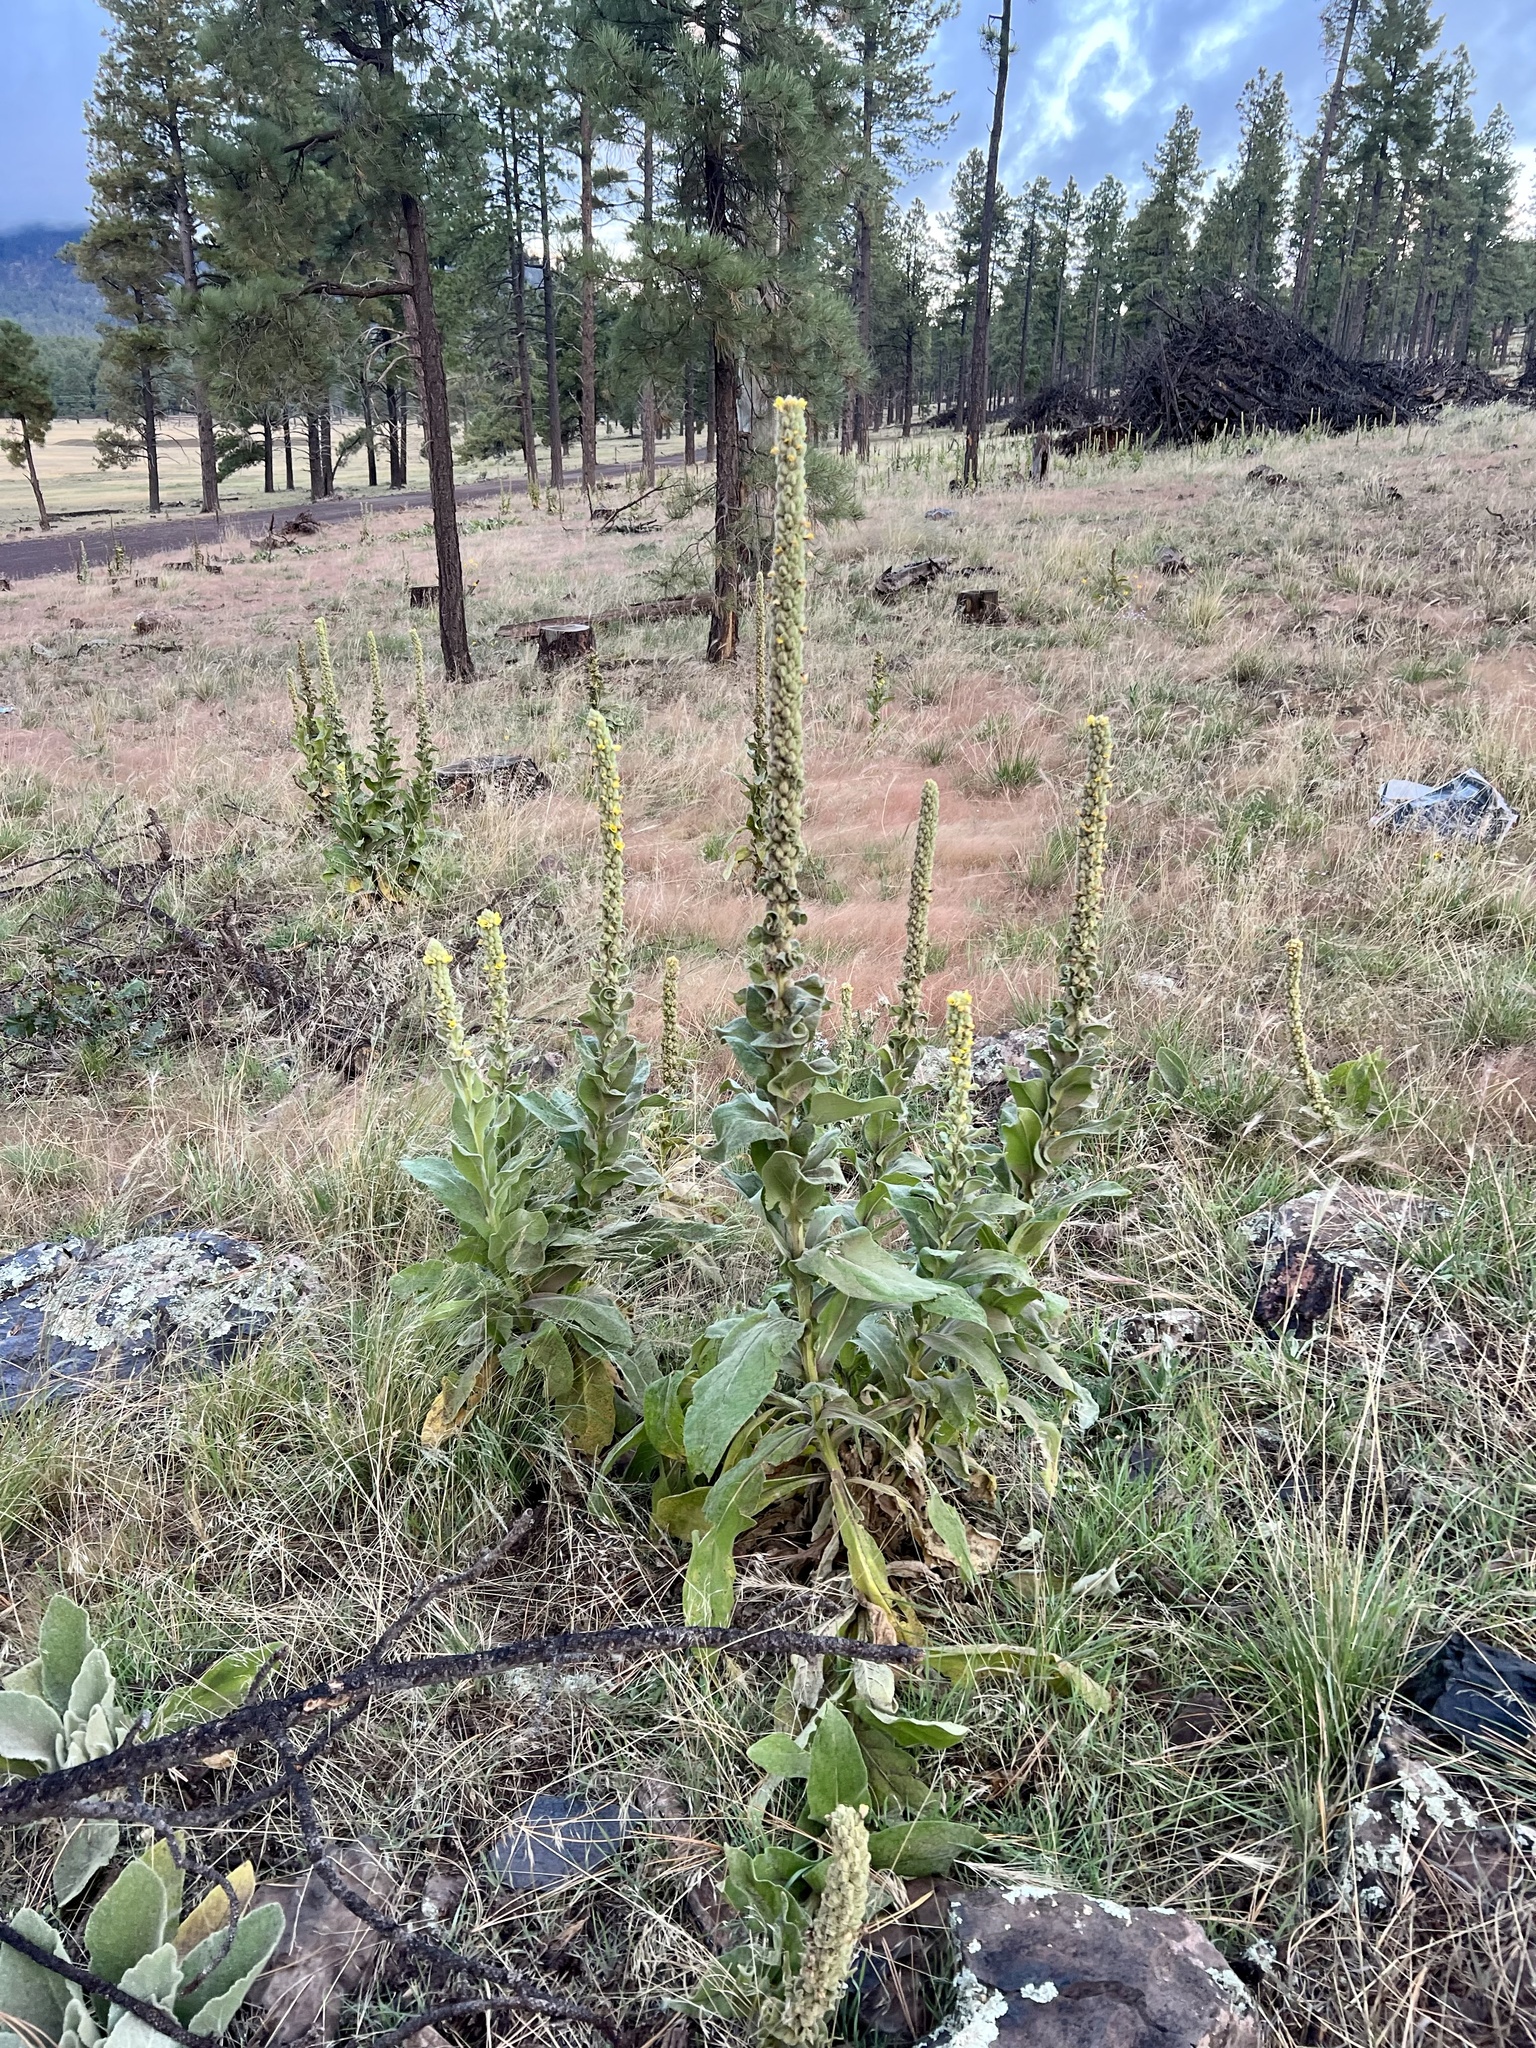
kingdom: Plantae
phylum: Tracheophyta
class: Magnoliopsida
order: Lamiales
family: Scrophulariaceae
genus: Verbascum
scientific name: Verbascum thapsus
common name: Common mullein
